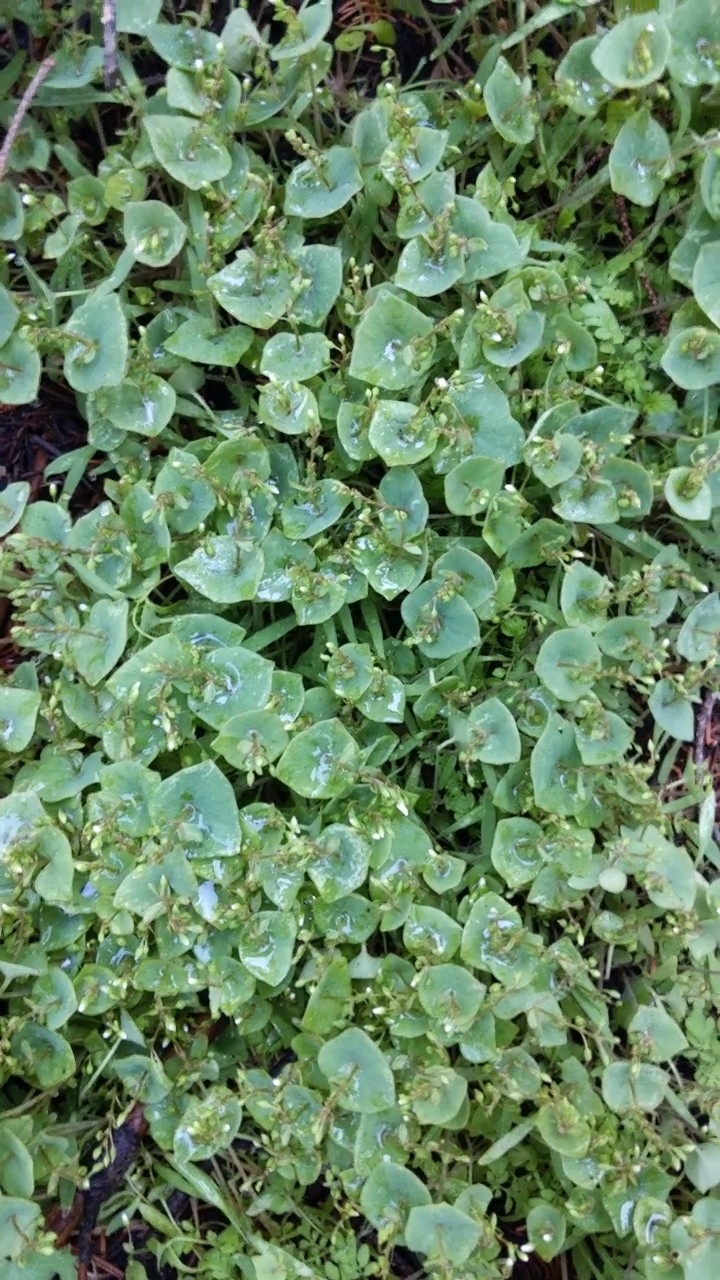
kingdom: Plantae
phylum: Tracheophyta
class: Magnoliopsida
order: Caryophyllales
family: Montiaceae
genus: Claytonia
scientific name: Claytonia parviflora
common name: Indian-lettuce
